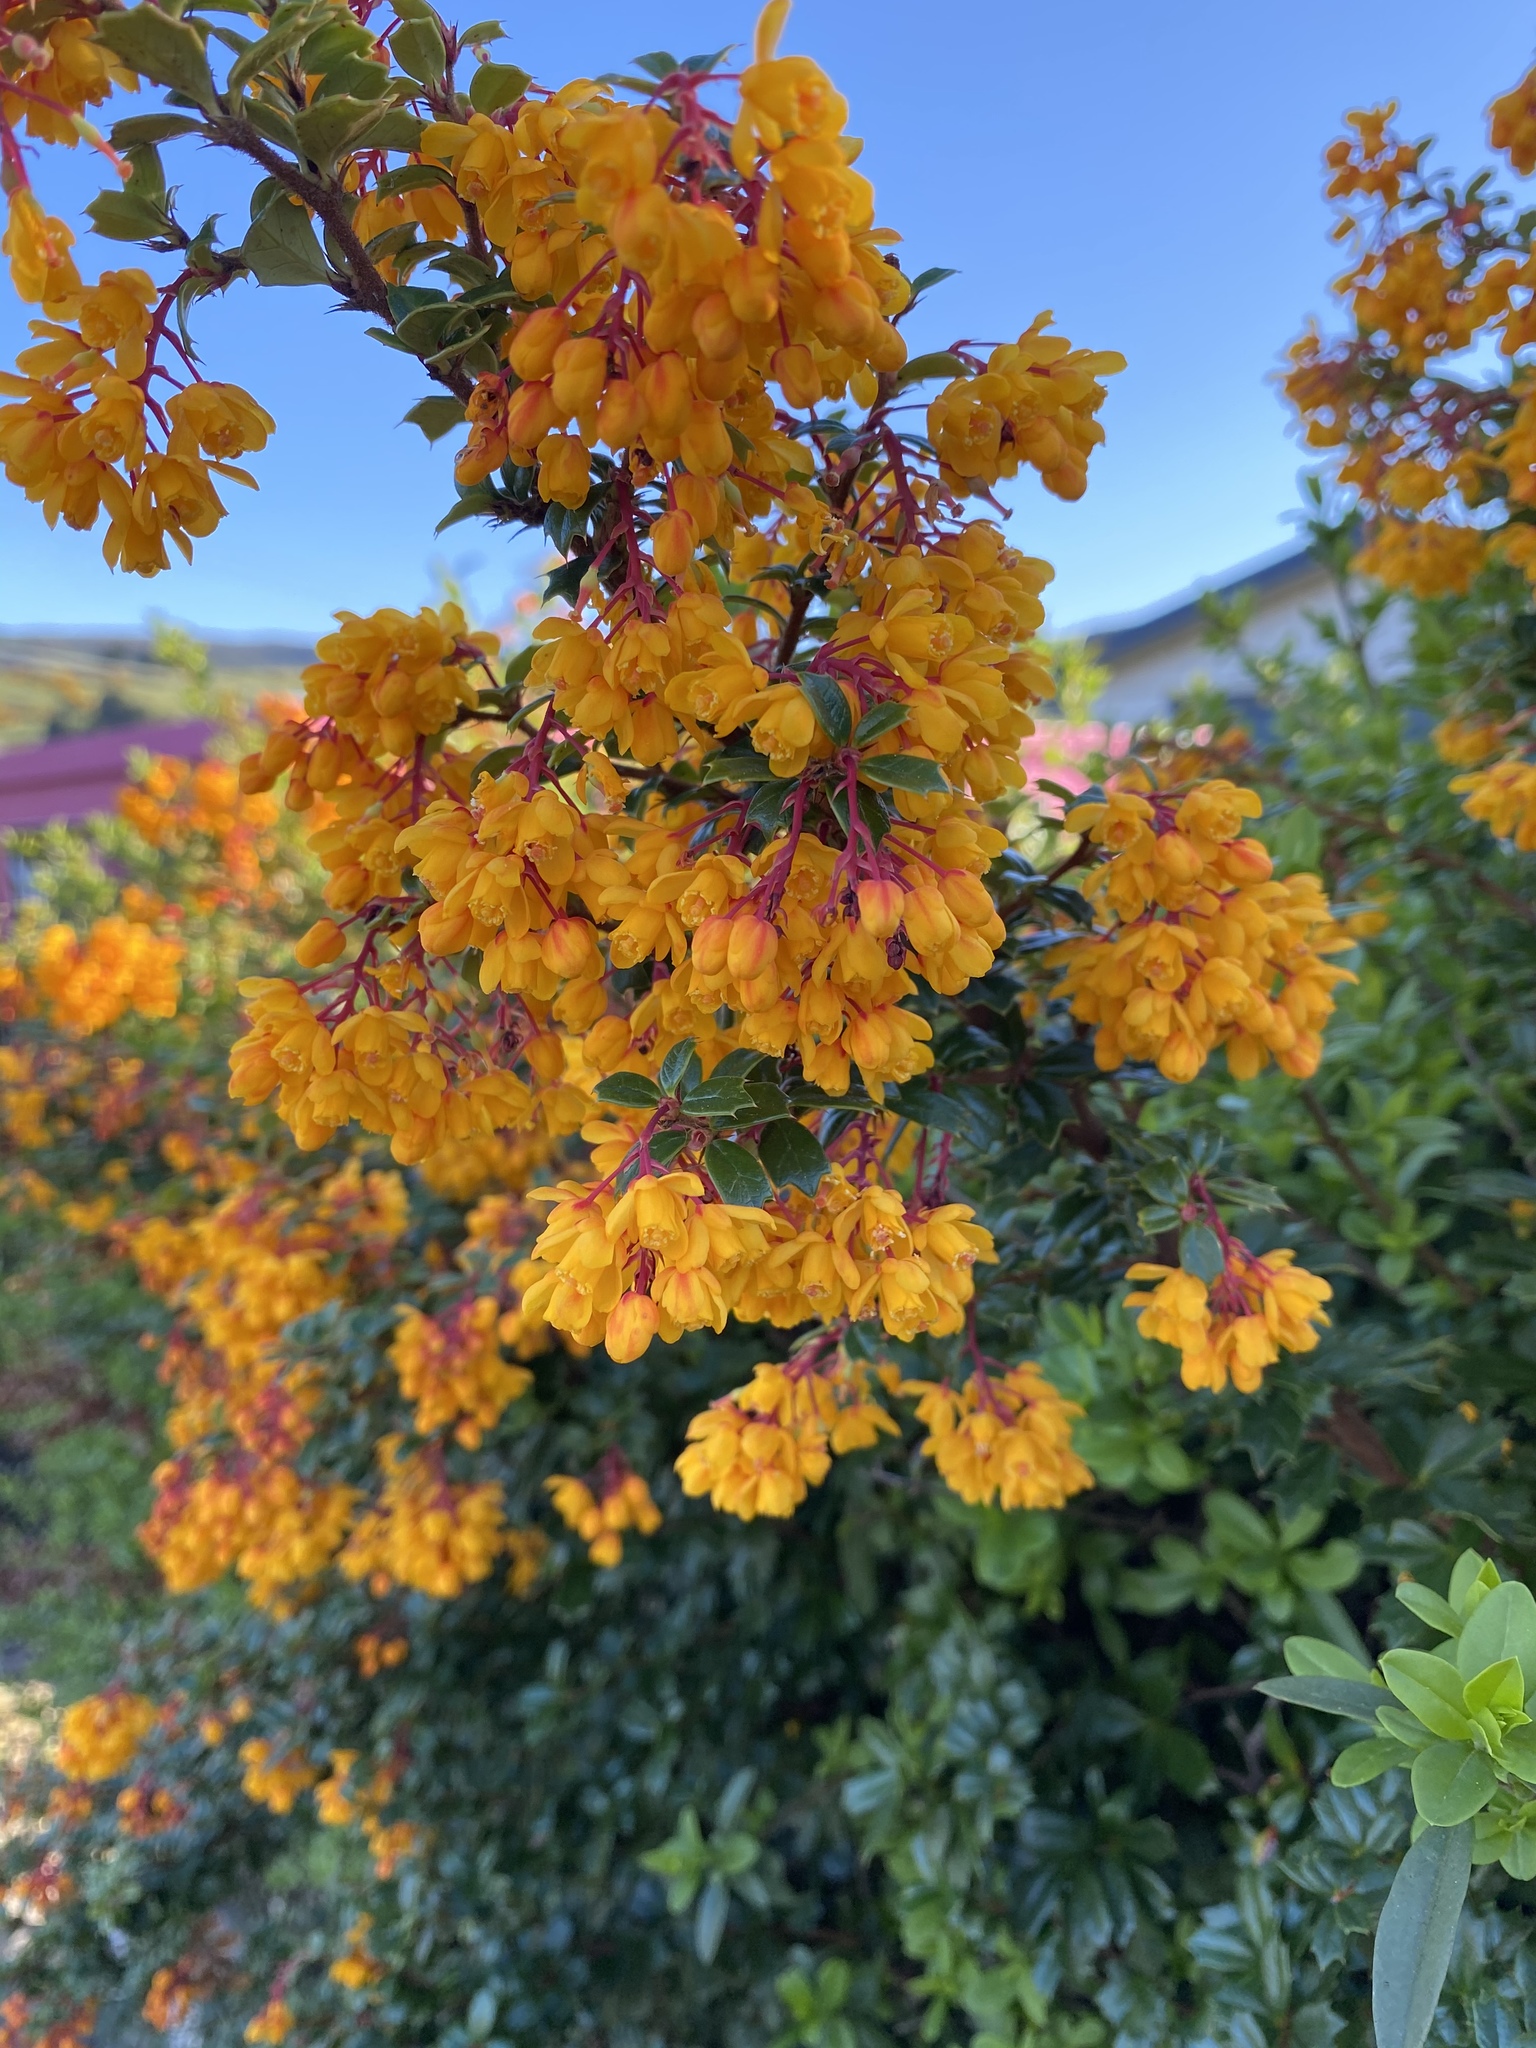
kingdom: Plantae
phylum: Tracheophyta
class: Magnoliopsida
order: Ranunculales
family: Berberidaceae
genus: Berberis
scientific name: Berberis darwinii
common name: Darwin's barberry
